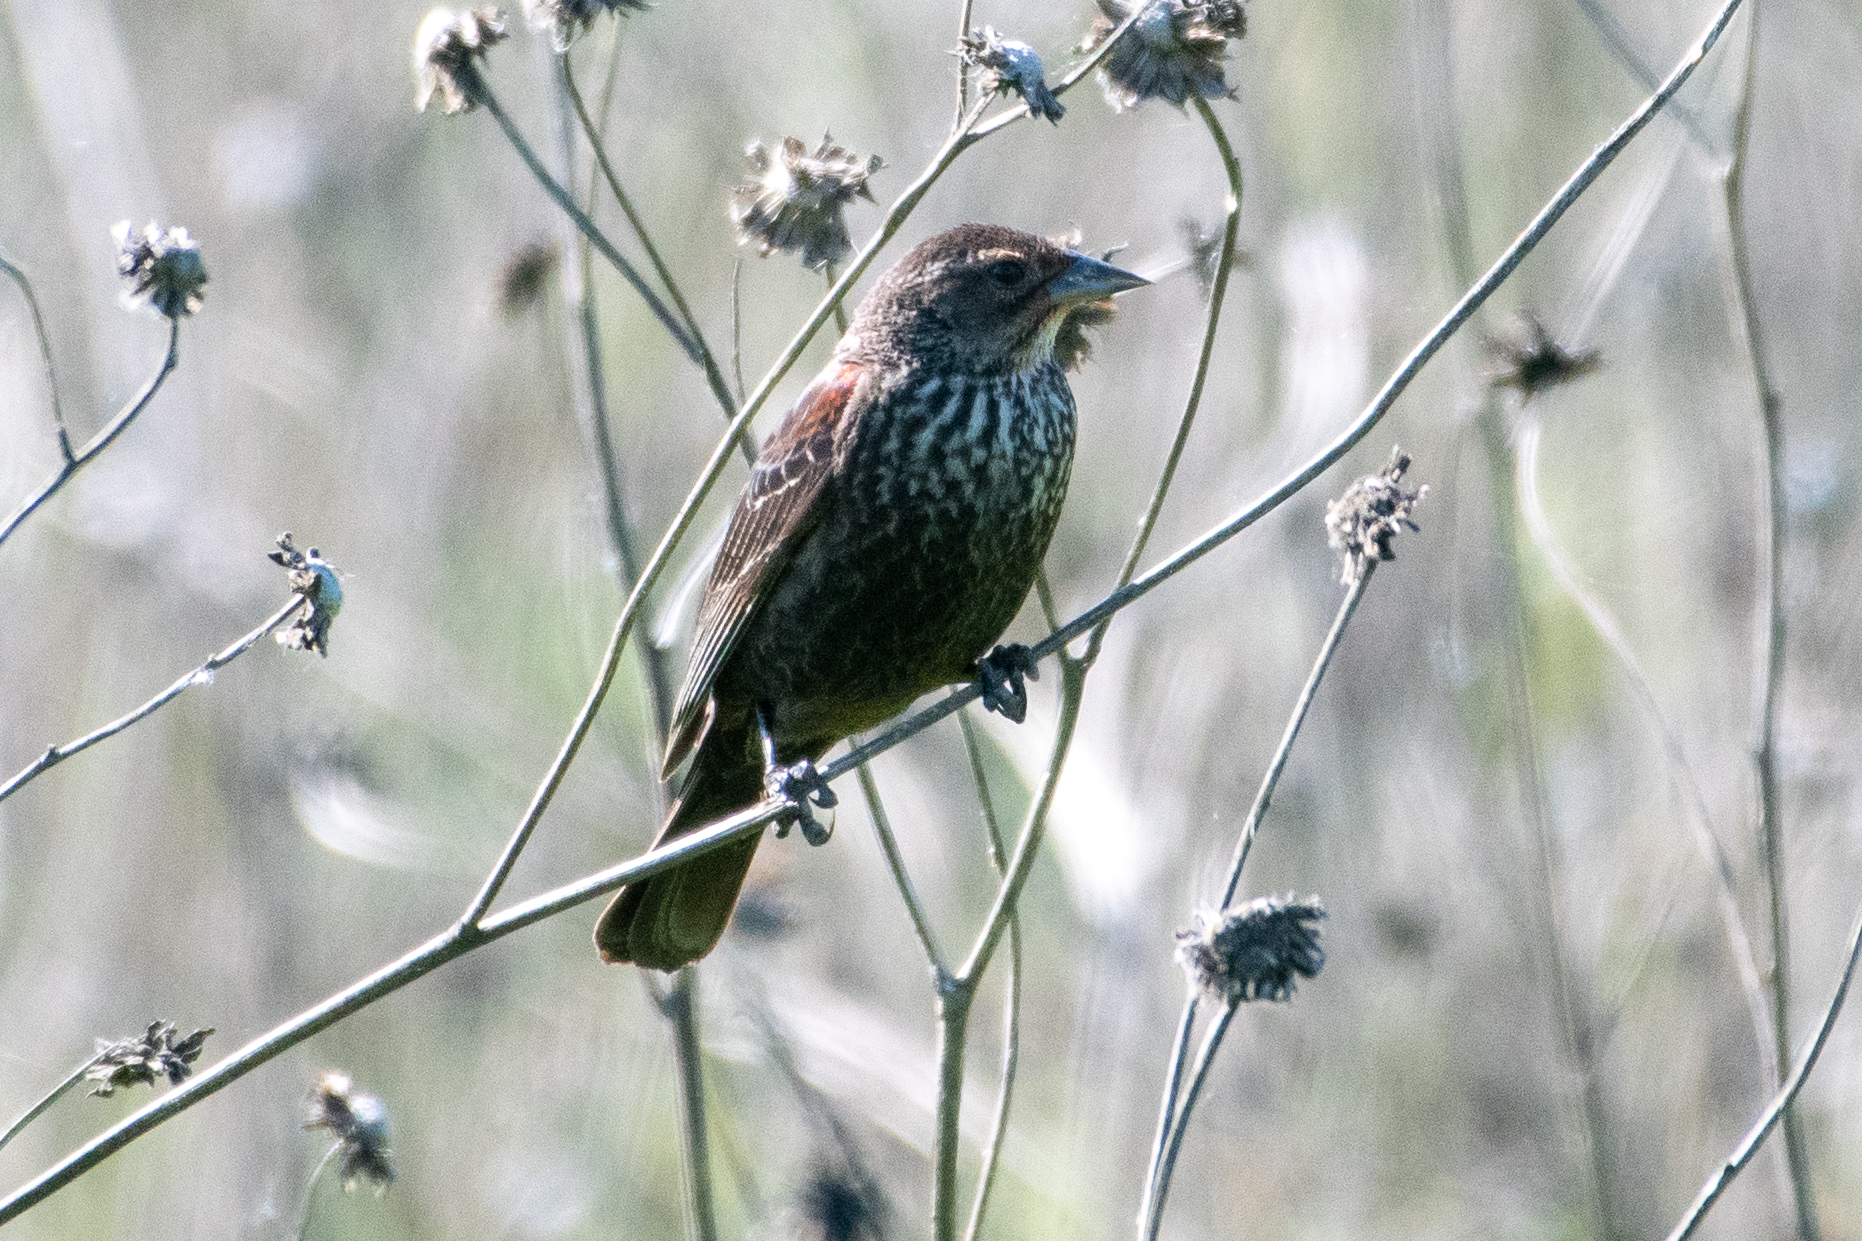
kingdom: Animalia
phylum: Chordata
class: Aves
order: Passeriformes
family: Icteridae
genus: Agelaius
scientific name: Agelaius phoeniceus
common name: Red-winged blackbird
